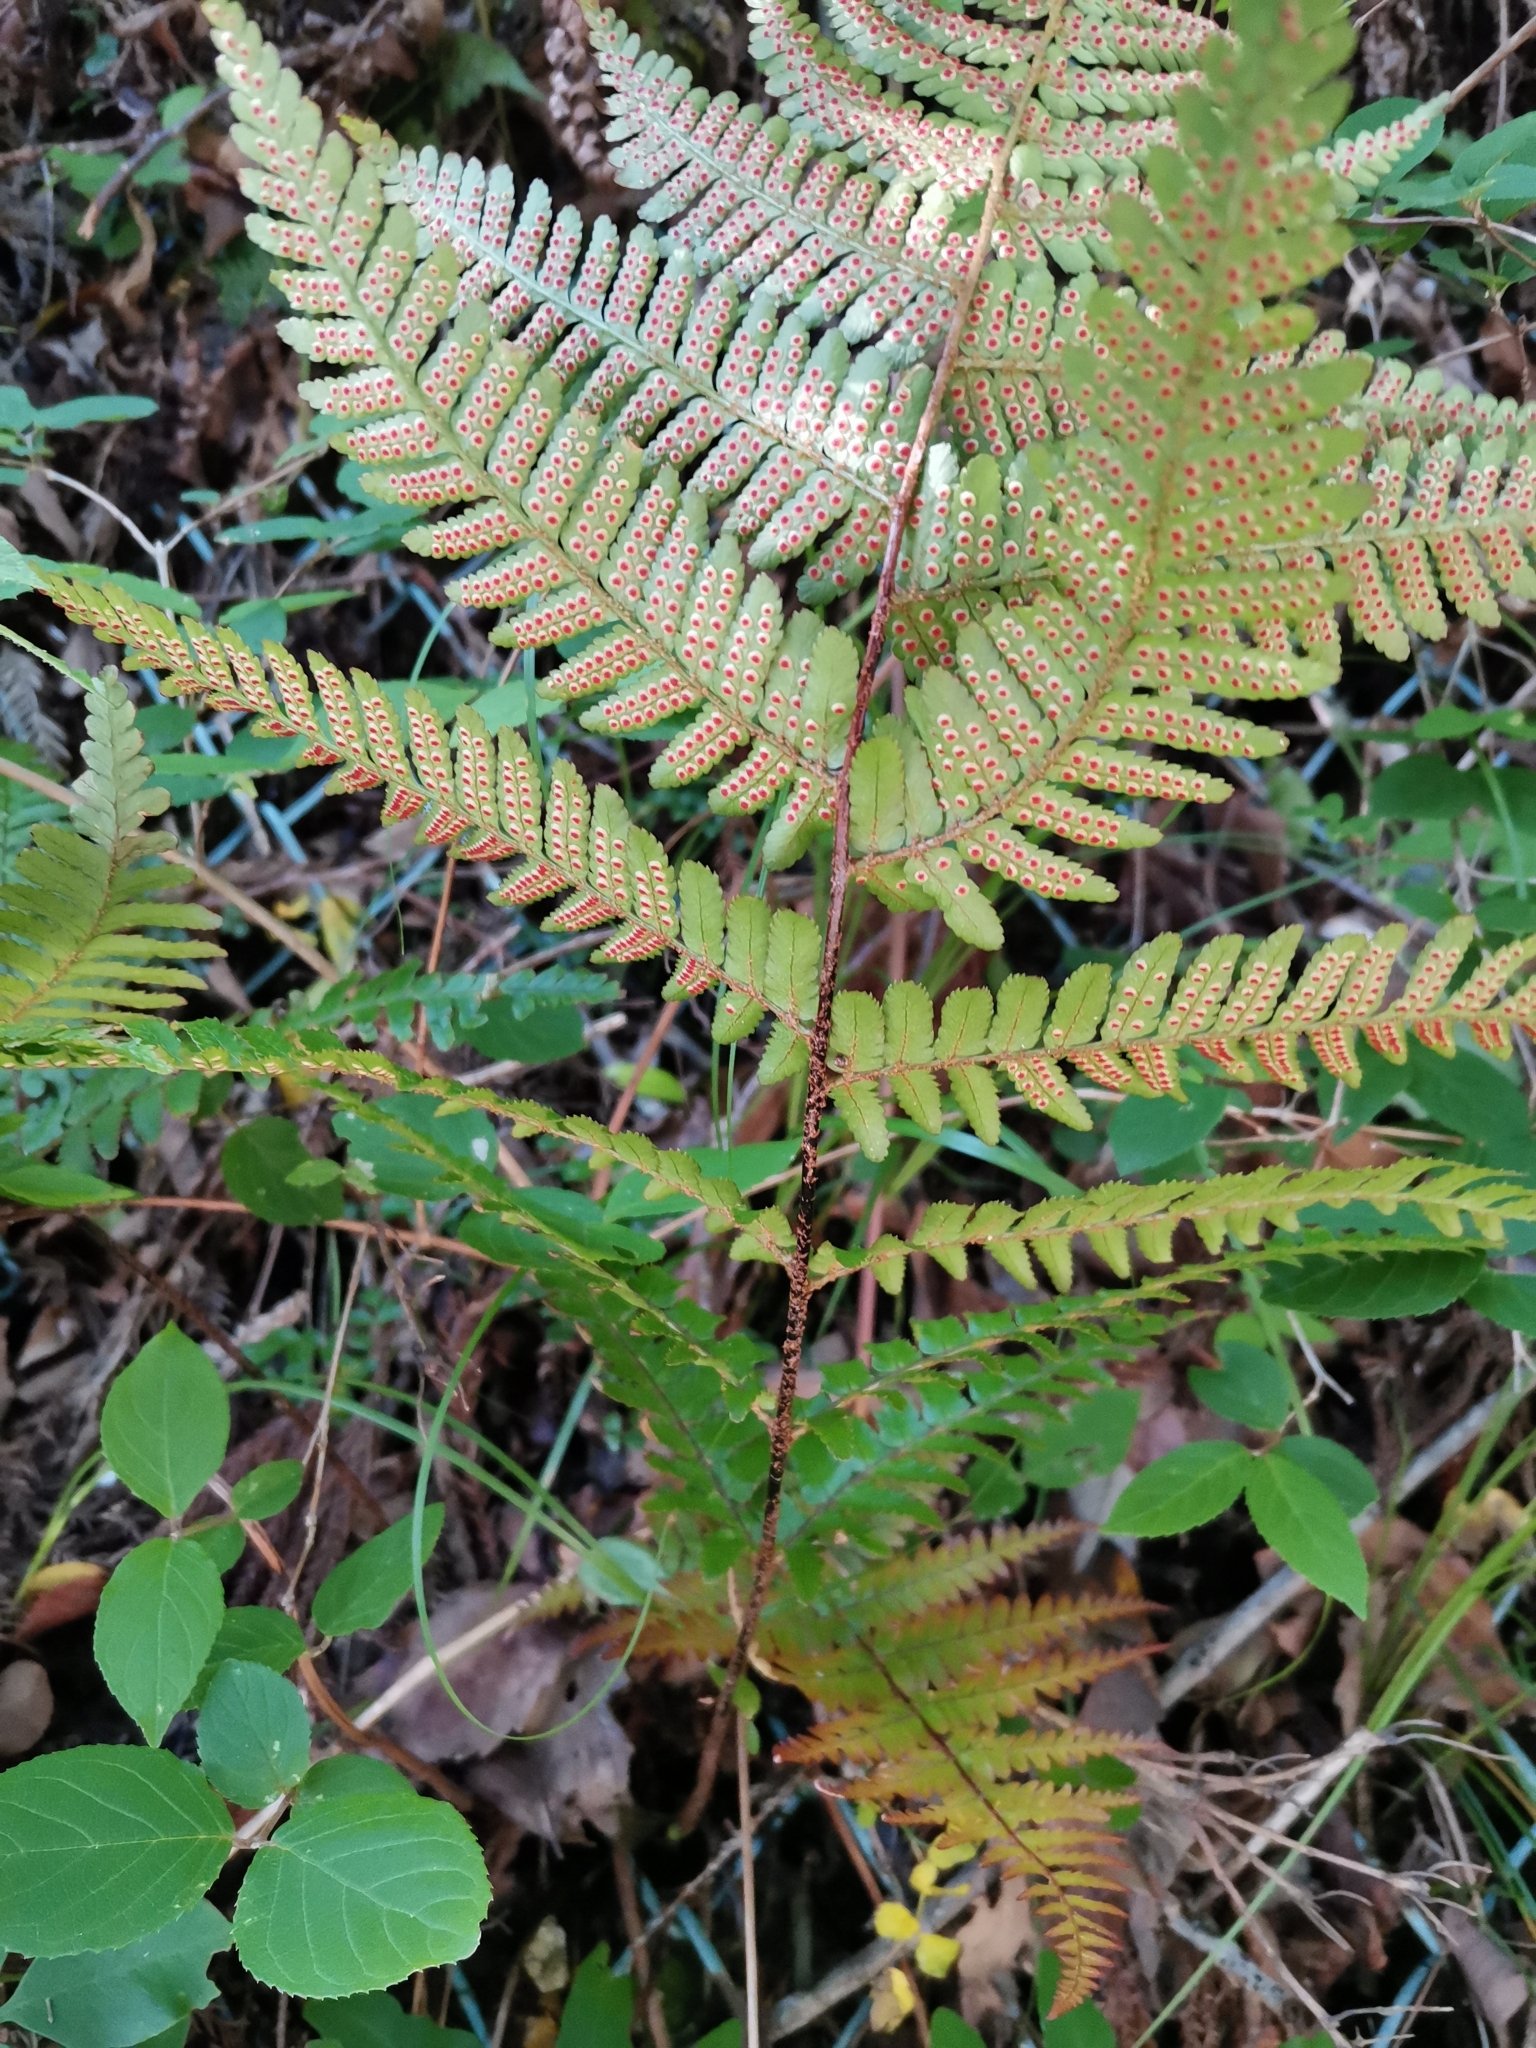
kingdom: Plantae
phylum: Tracheophyta
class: Polypodiopsida
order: Polypodiales
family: Dryopteridaceae
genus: Dryopteris
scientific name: Dryopteris kinokuniensis
